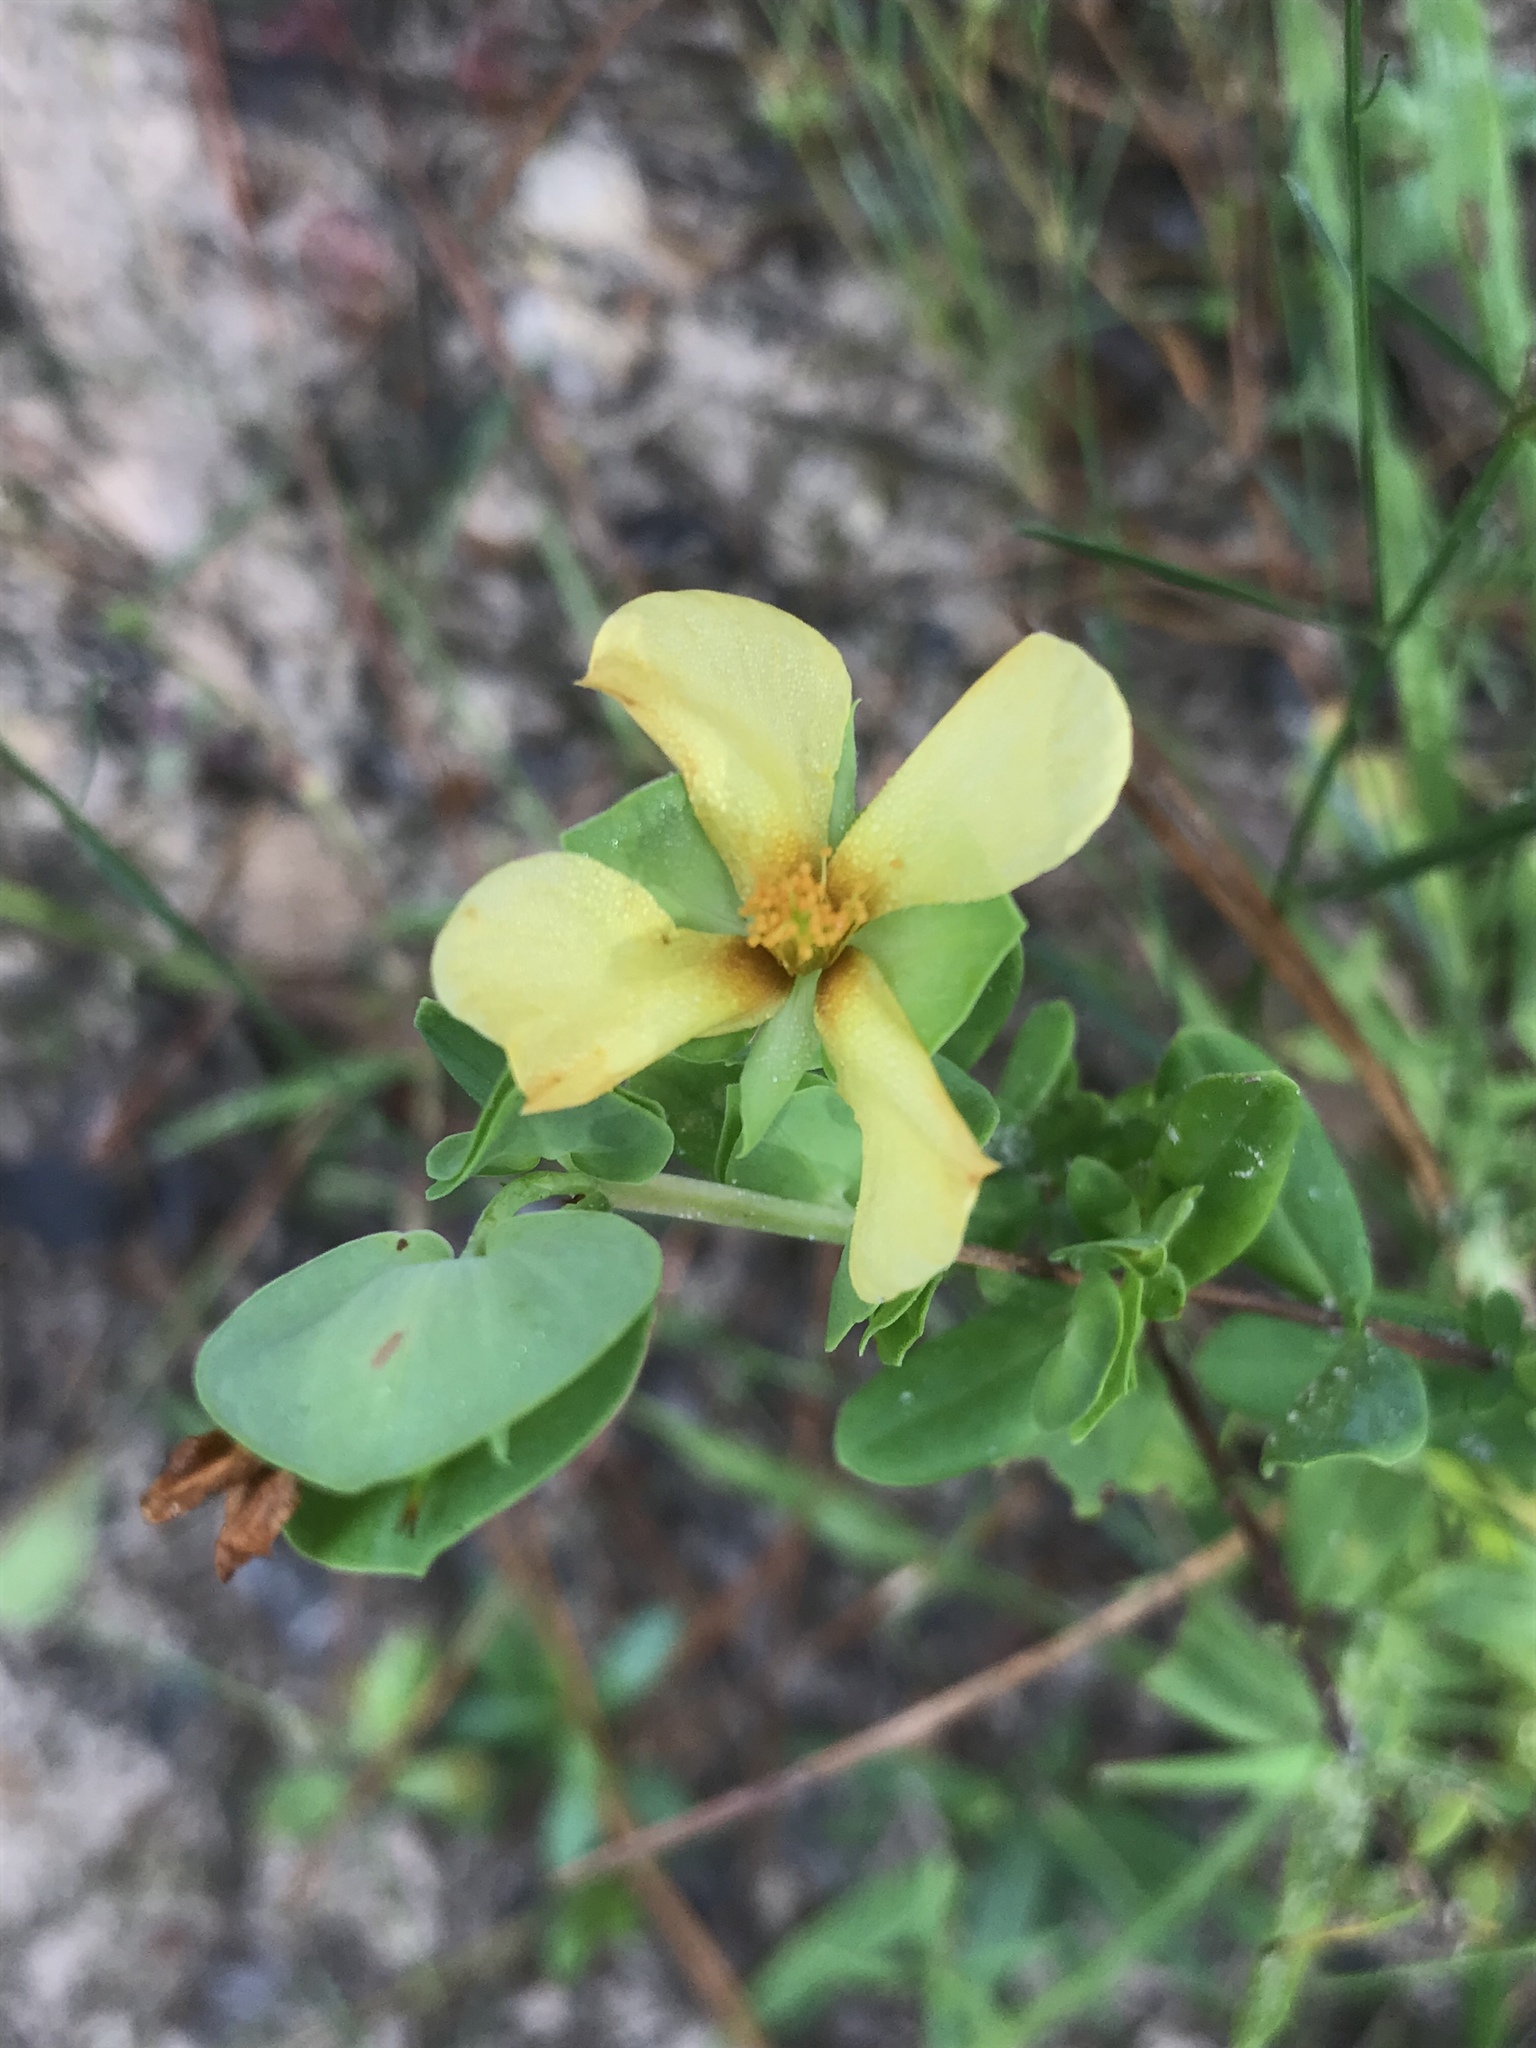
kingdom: Plantae
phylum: Tracheophyta
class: Magnoliopsida
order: Malpighiales
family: Hypericaceae
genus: Hypericum
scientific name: Hypericum crux-andreae
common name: St.-peter's-wort
